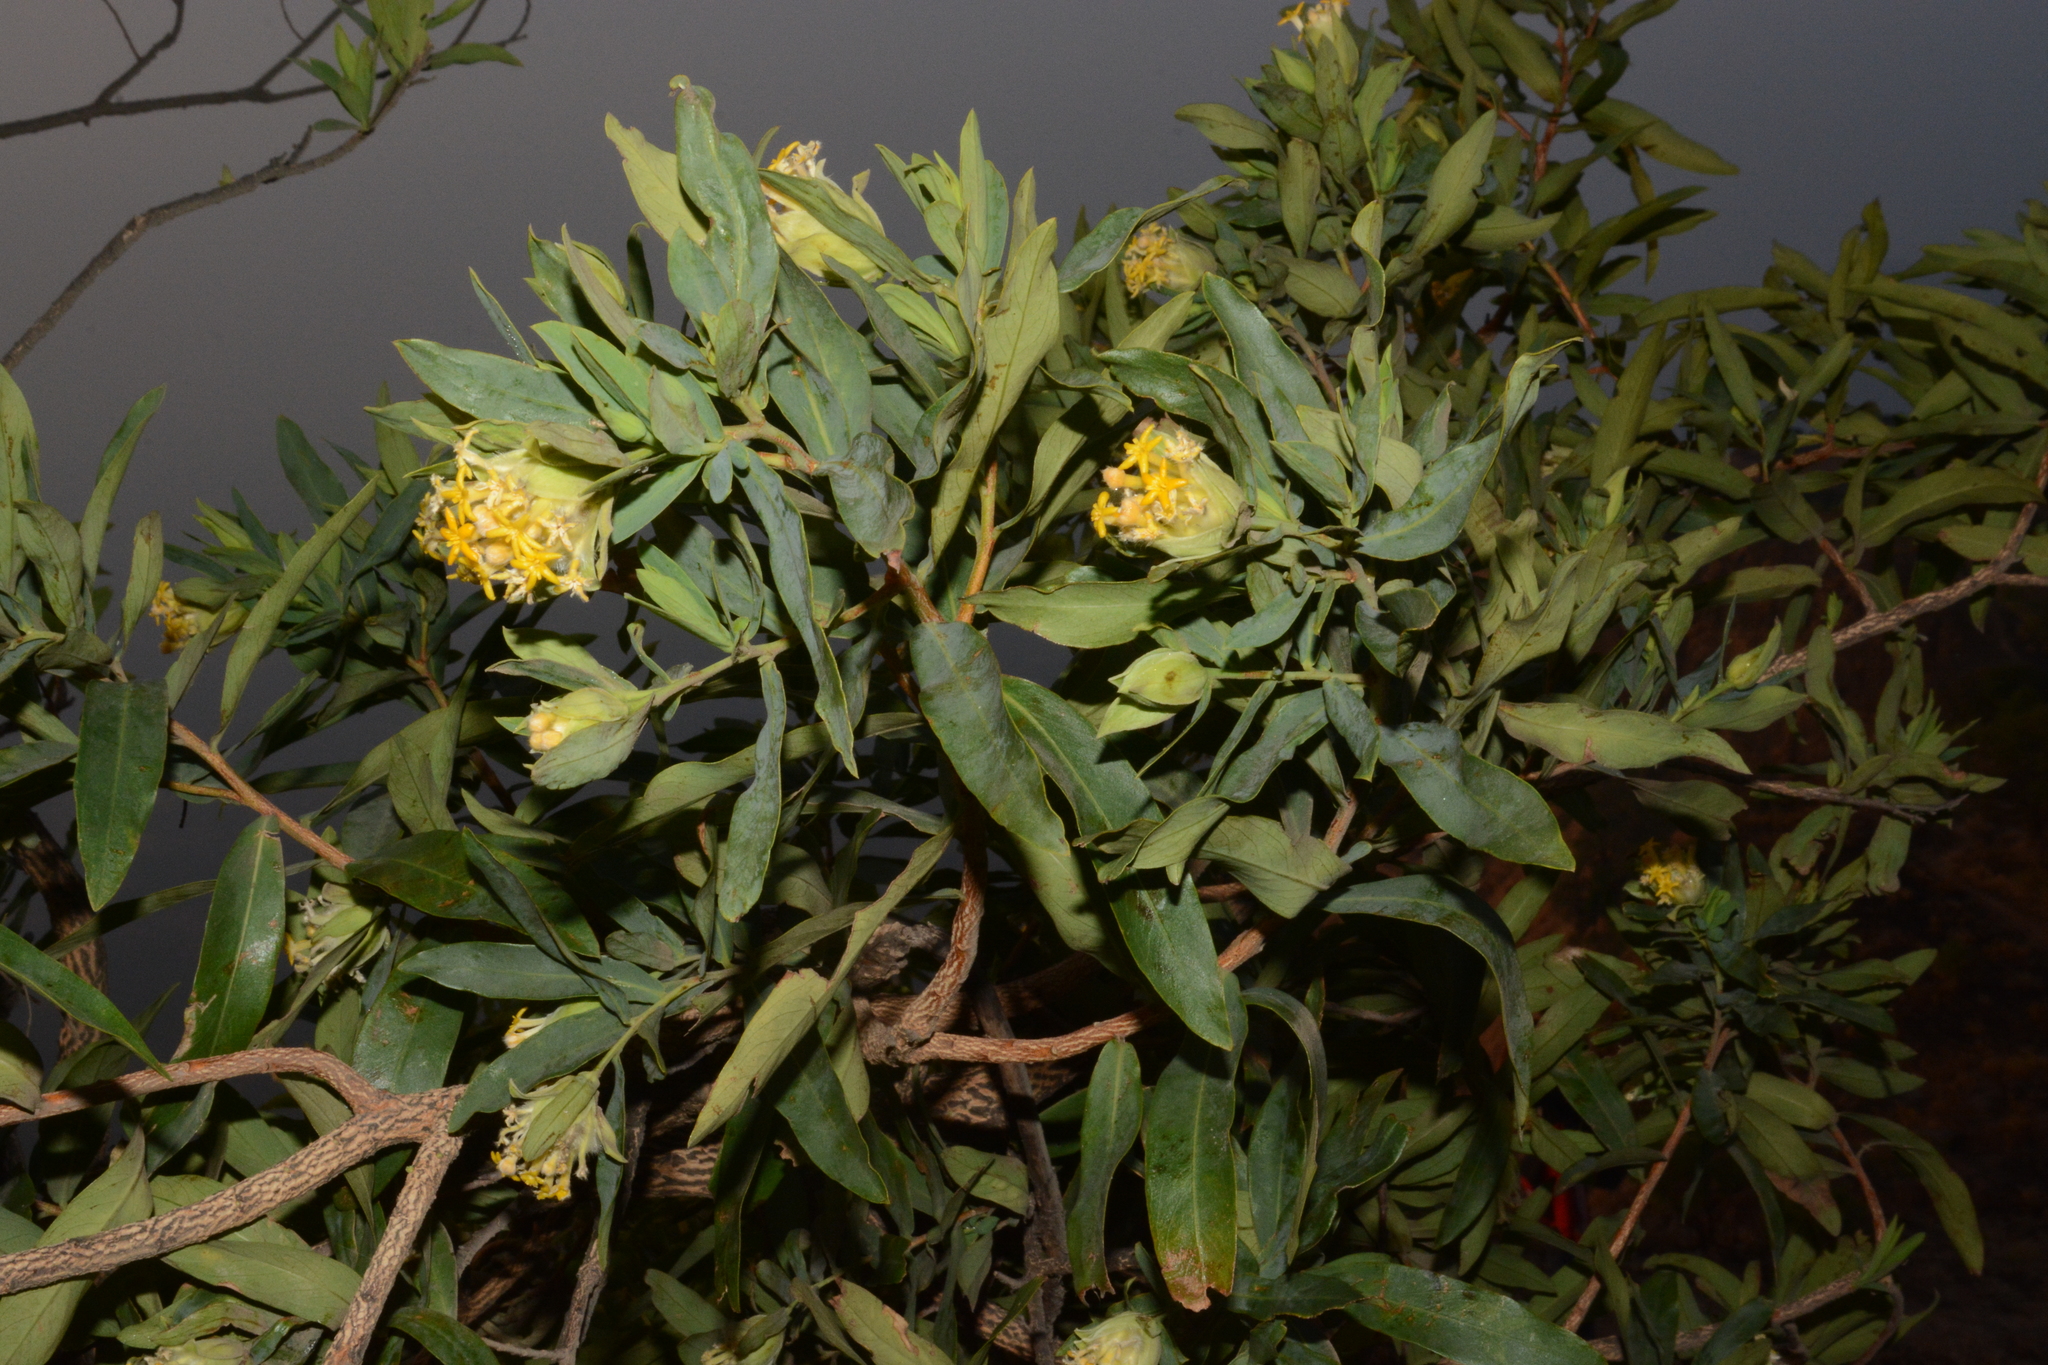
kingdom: Plantae
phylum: Tracheophyta
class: Magnoliopsida
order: Malvales
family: Thymelaeaceae
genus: Gnidia
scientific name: Gnidia glauca
